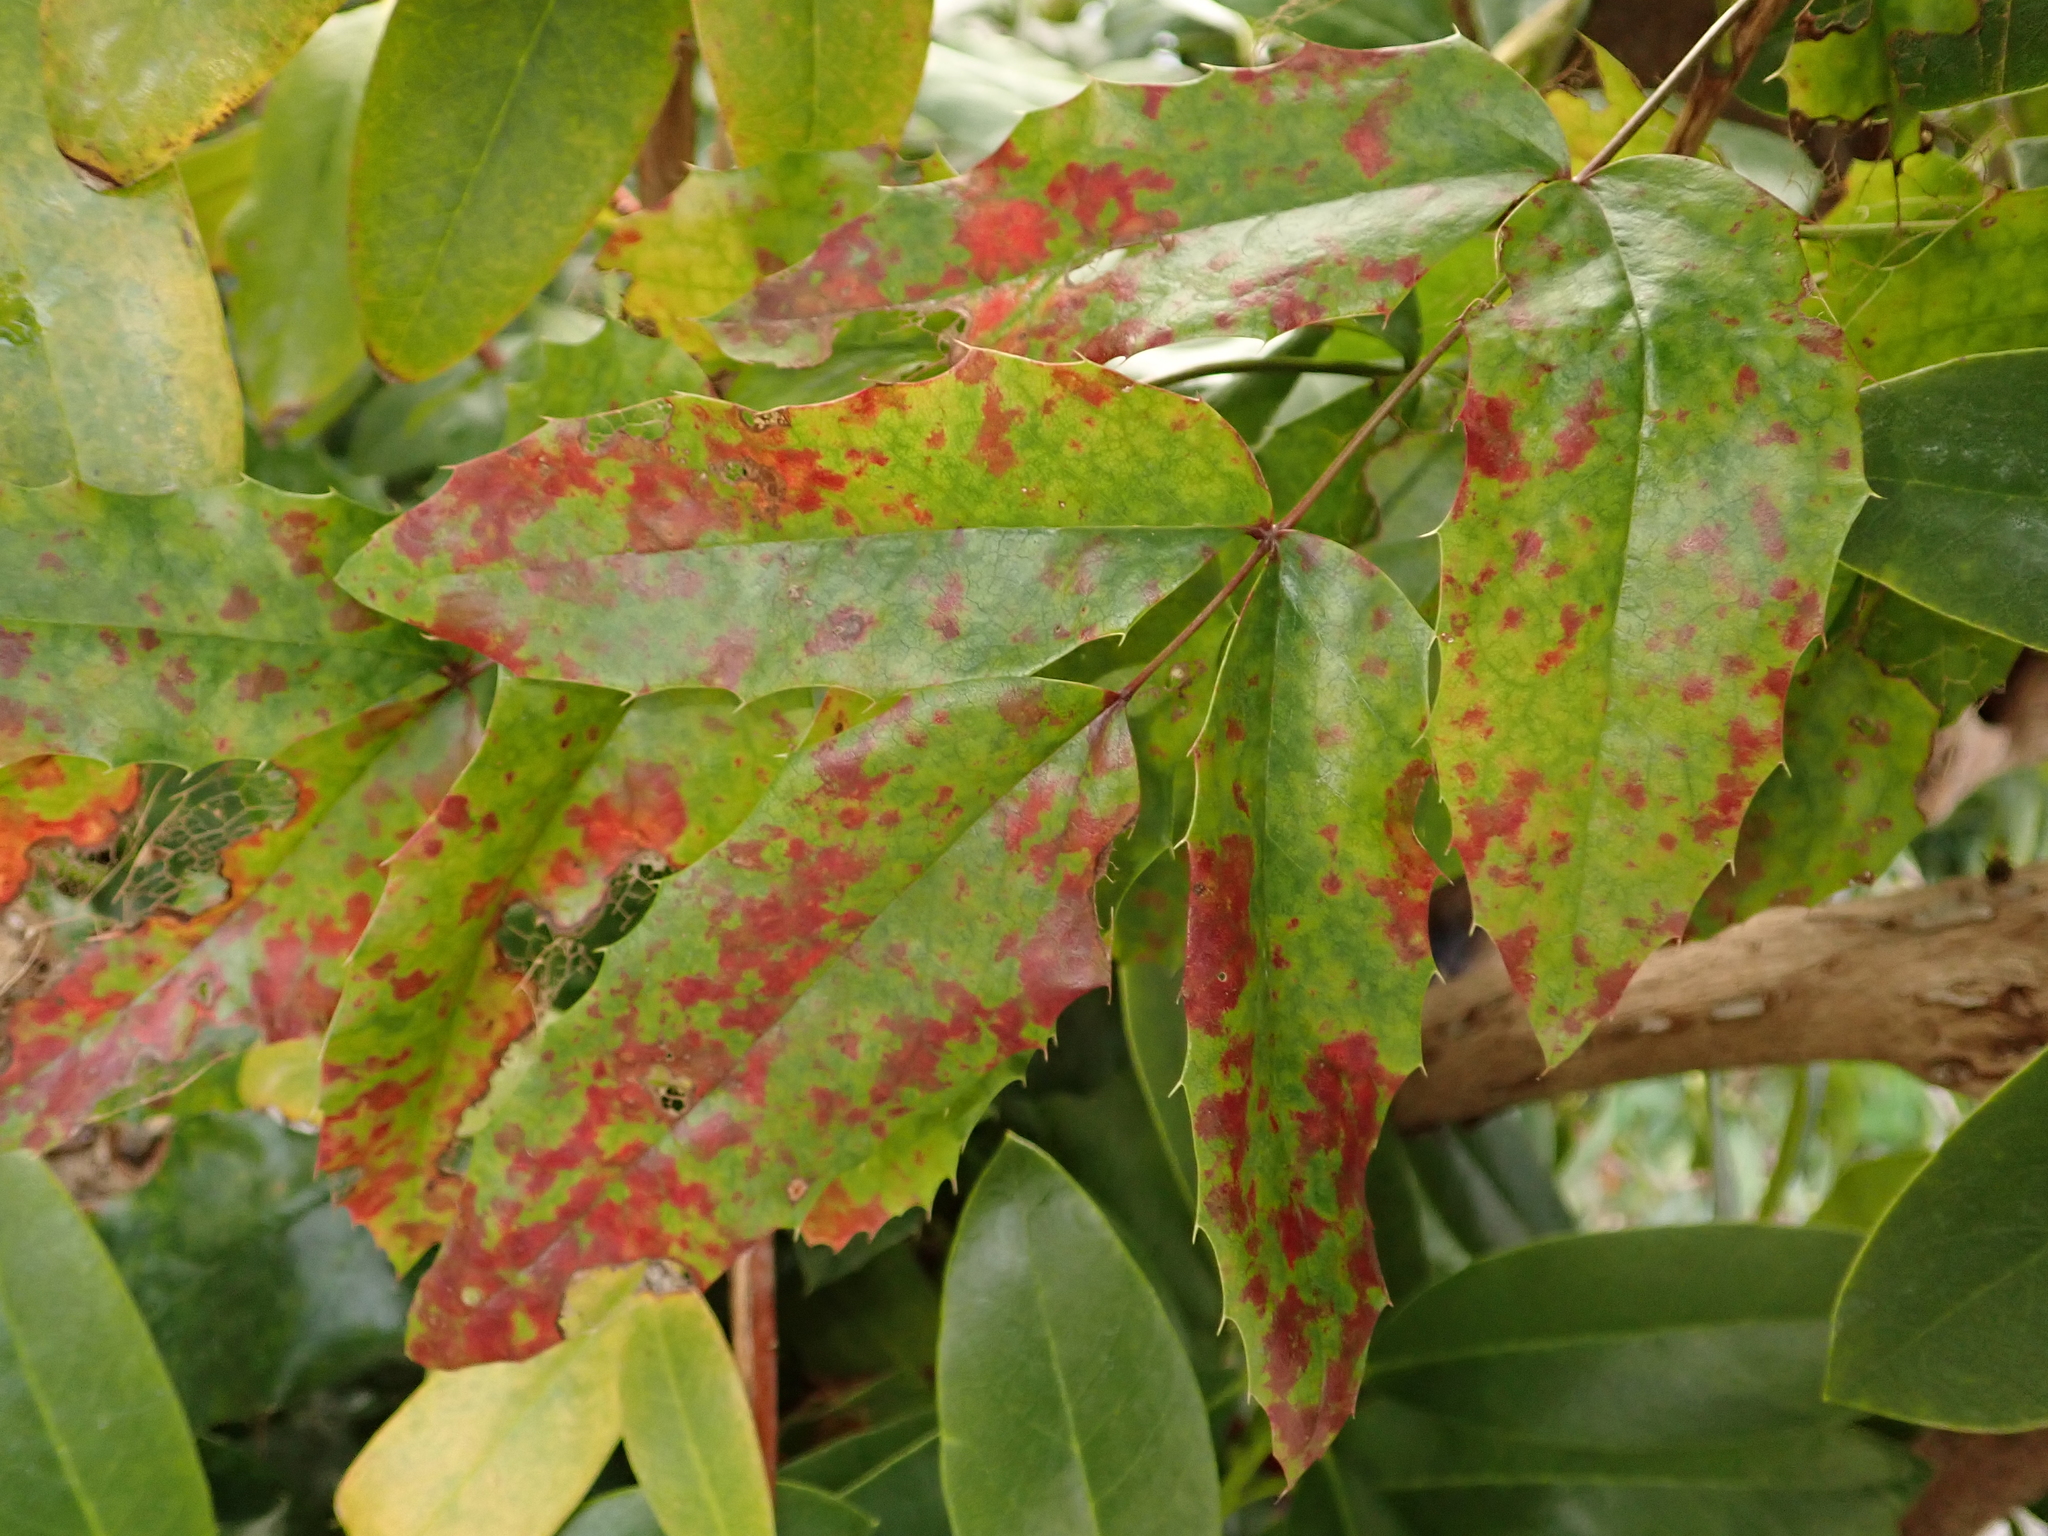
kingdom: Plantae
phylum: Tracheophyta
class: Magnoliopsida
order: Ranunculales
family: Berberidaceae
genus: Mahonia
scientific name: Mahonia aquifolium
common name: Oregon-grape
